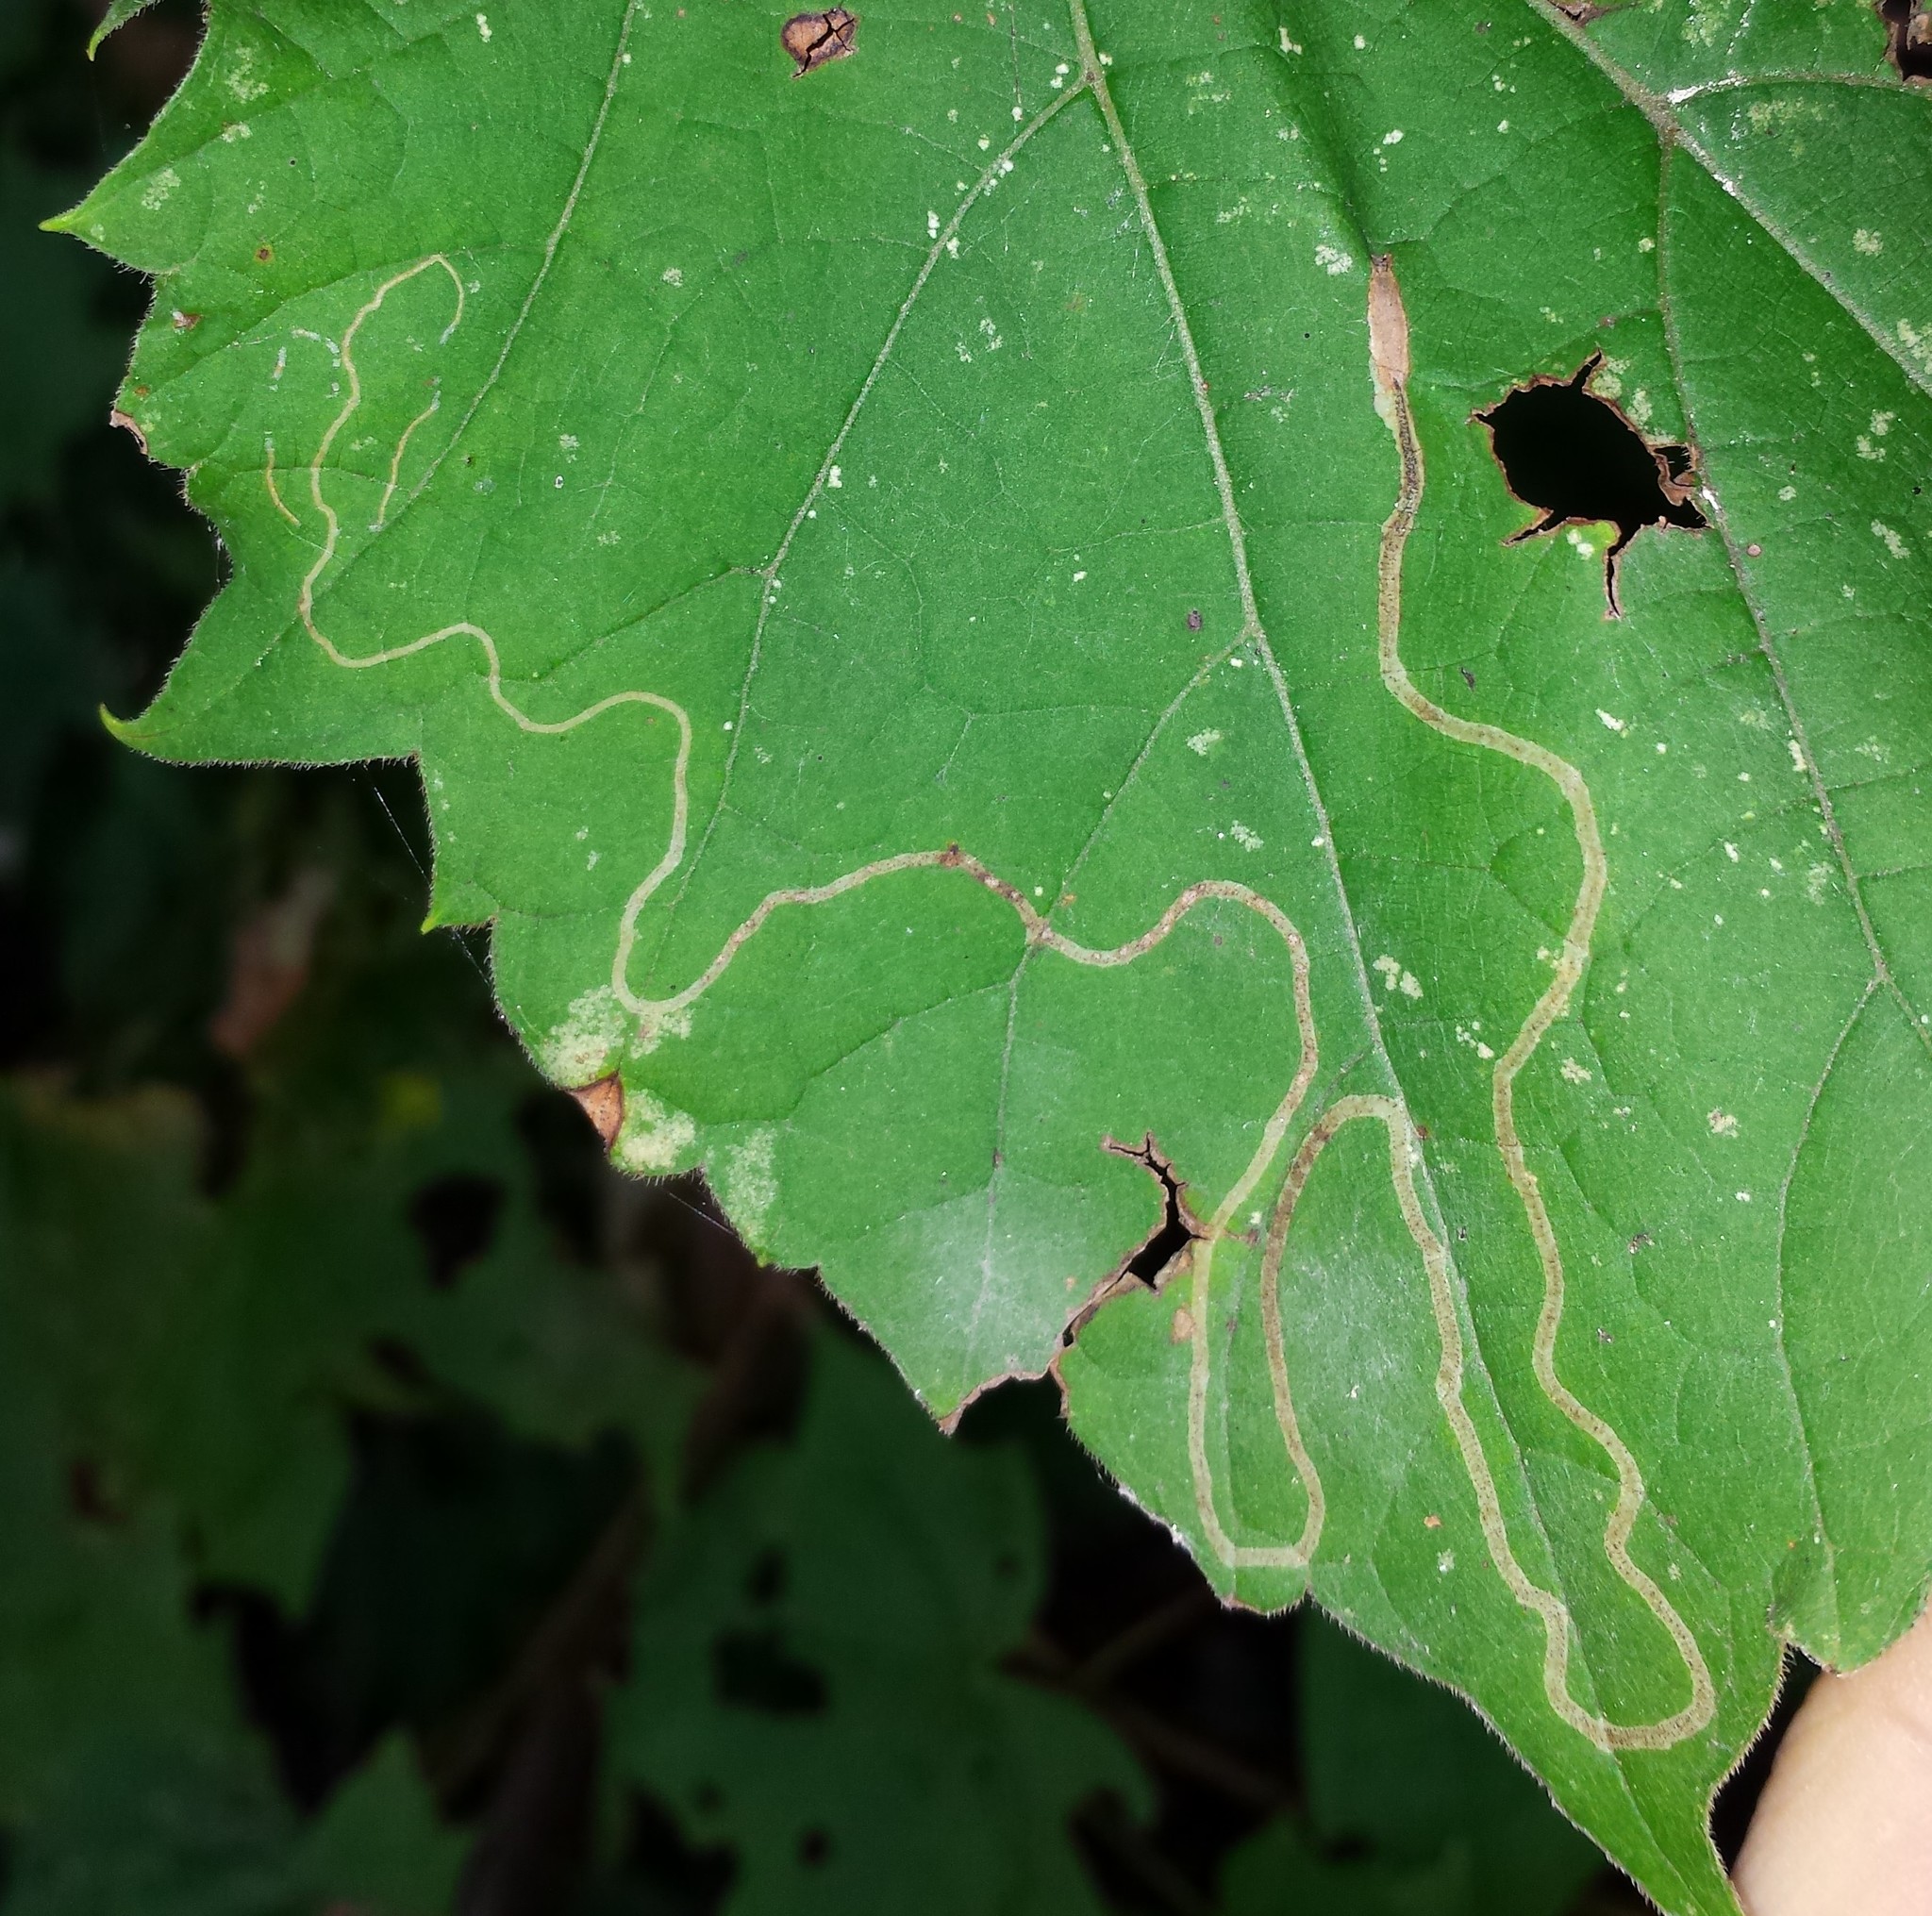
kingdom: Animalia
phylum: Arthropoda
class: Insecta
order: Lepidoptera
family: Gracillariidae
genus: Phyllocnistis
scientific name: Phyllocnistis vitifoliella
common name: Grape leaf-miner moth
